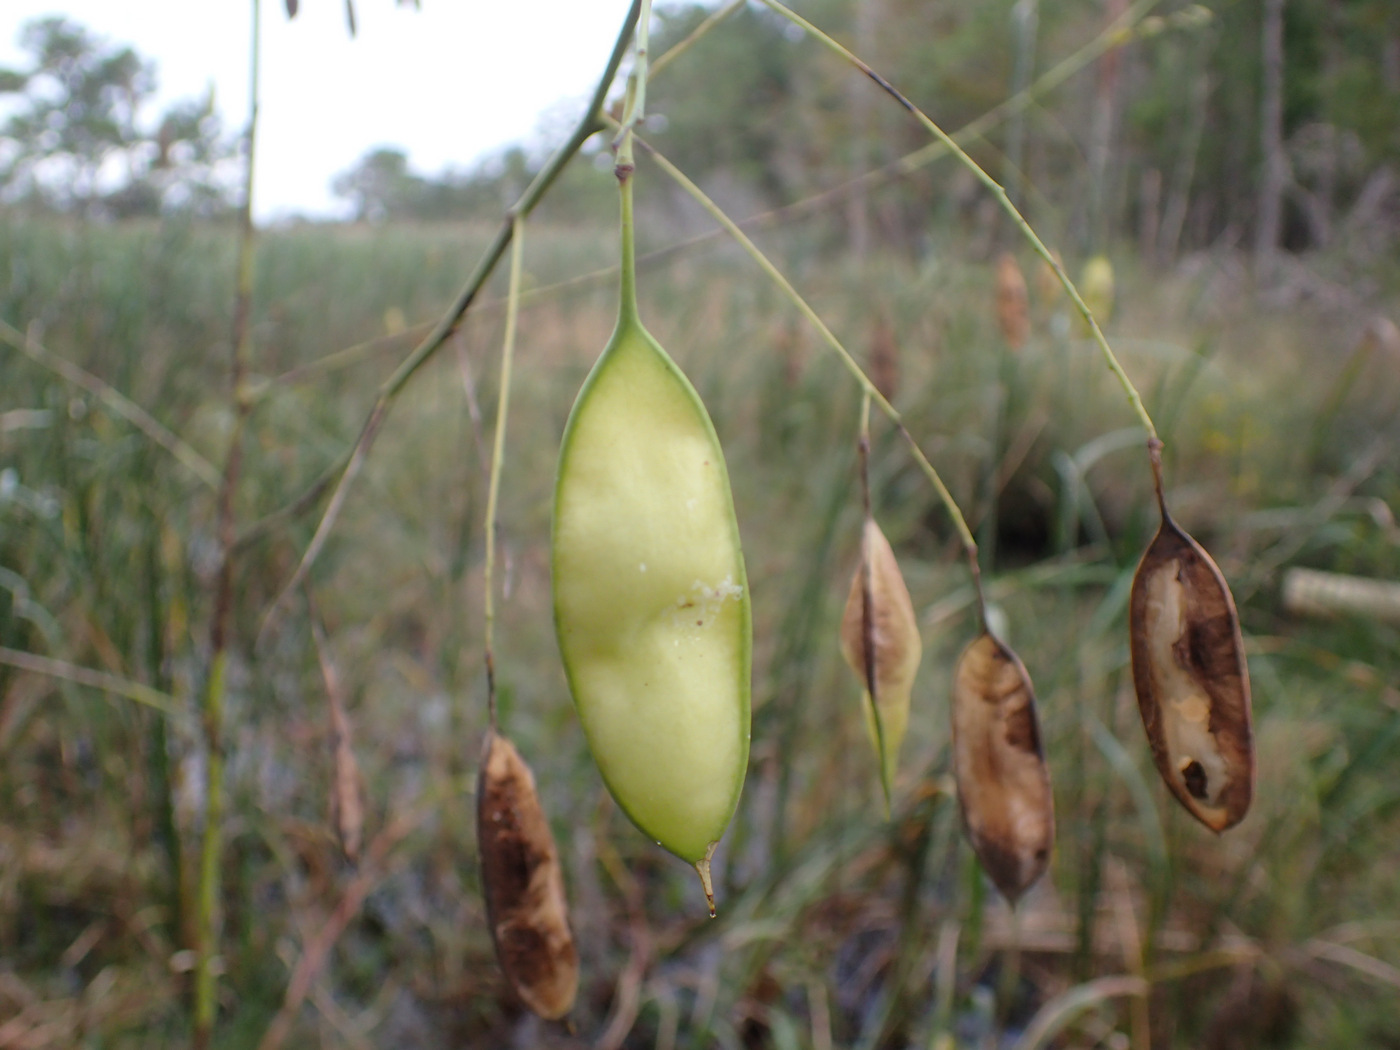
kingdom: Plantae
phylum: Tracheophyta
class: Magnoliopsida
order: Fabales
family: Fabaceae
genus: Sesbania
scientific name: Sesbania vesicaria
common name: Bagpod
